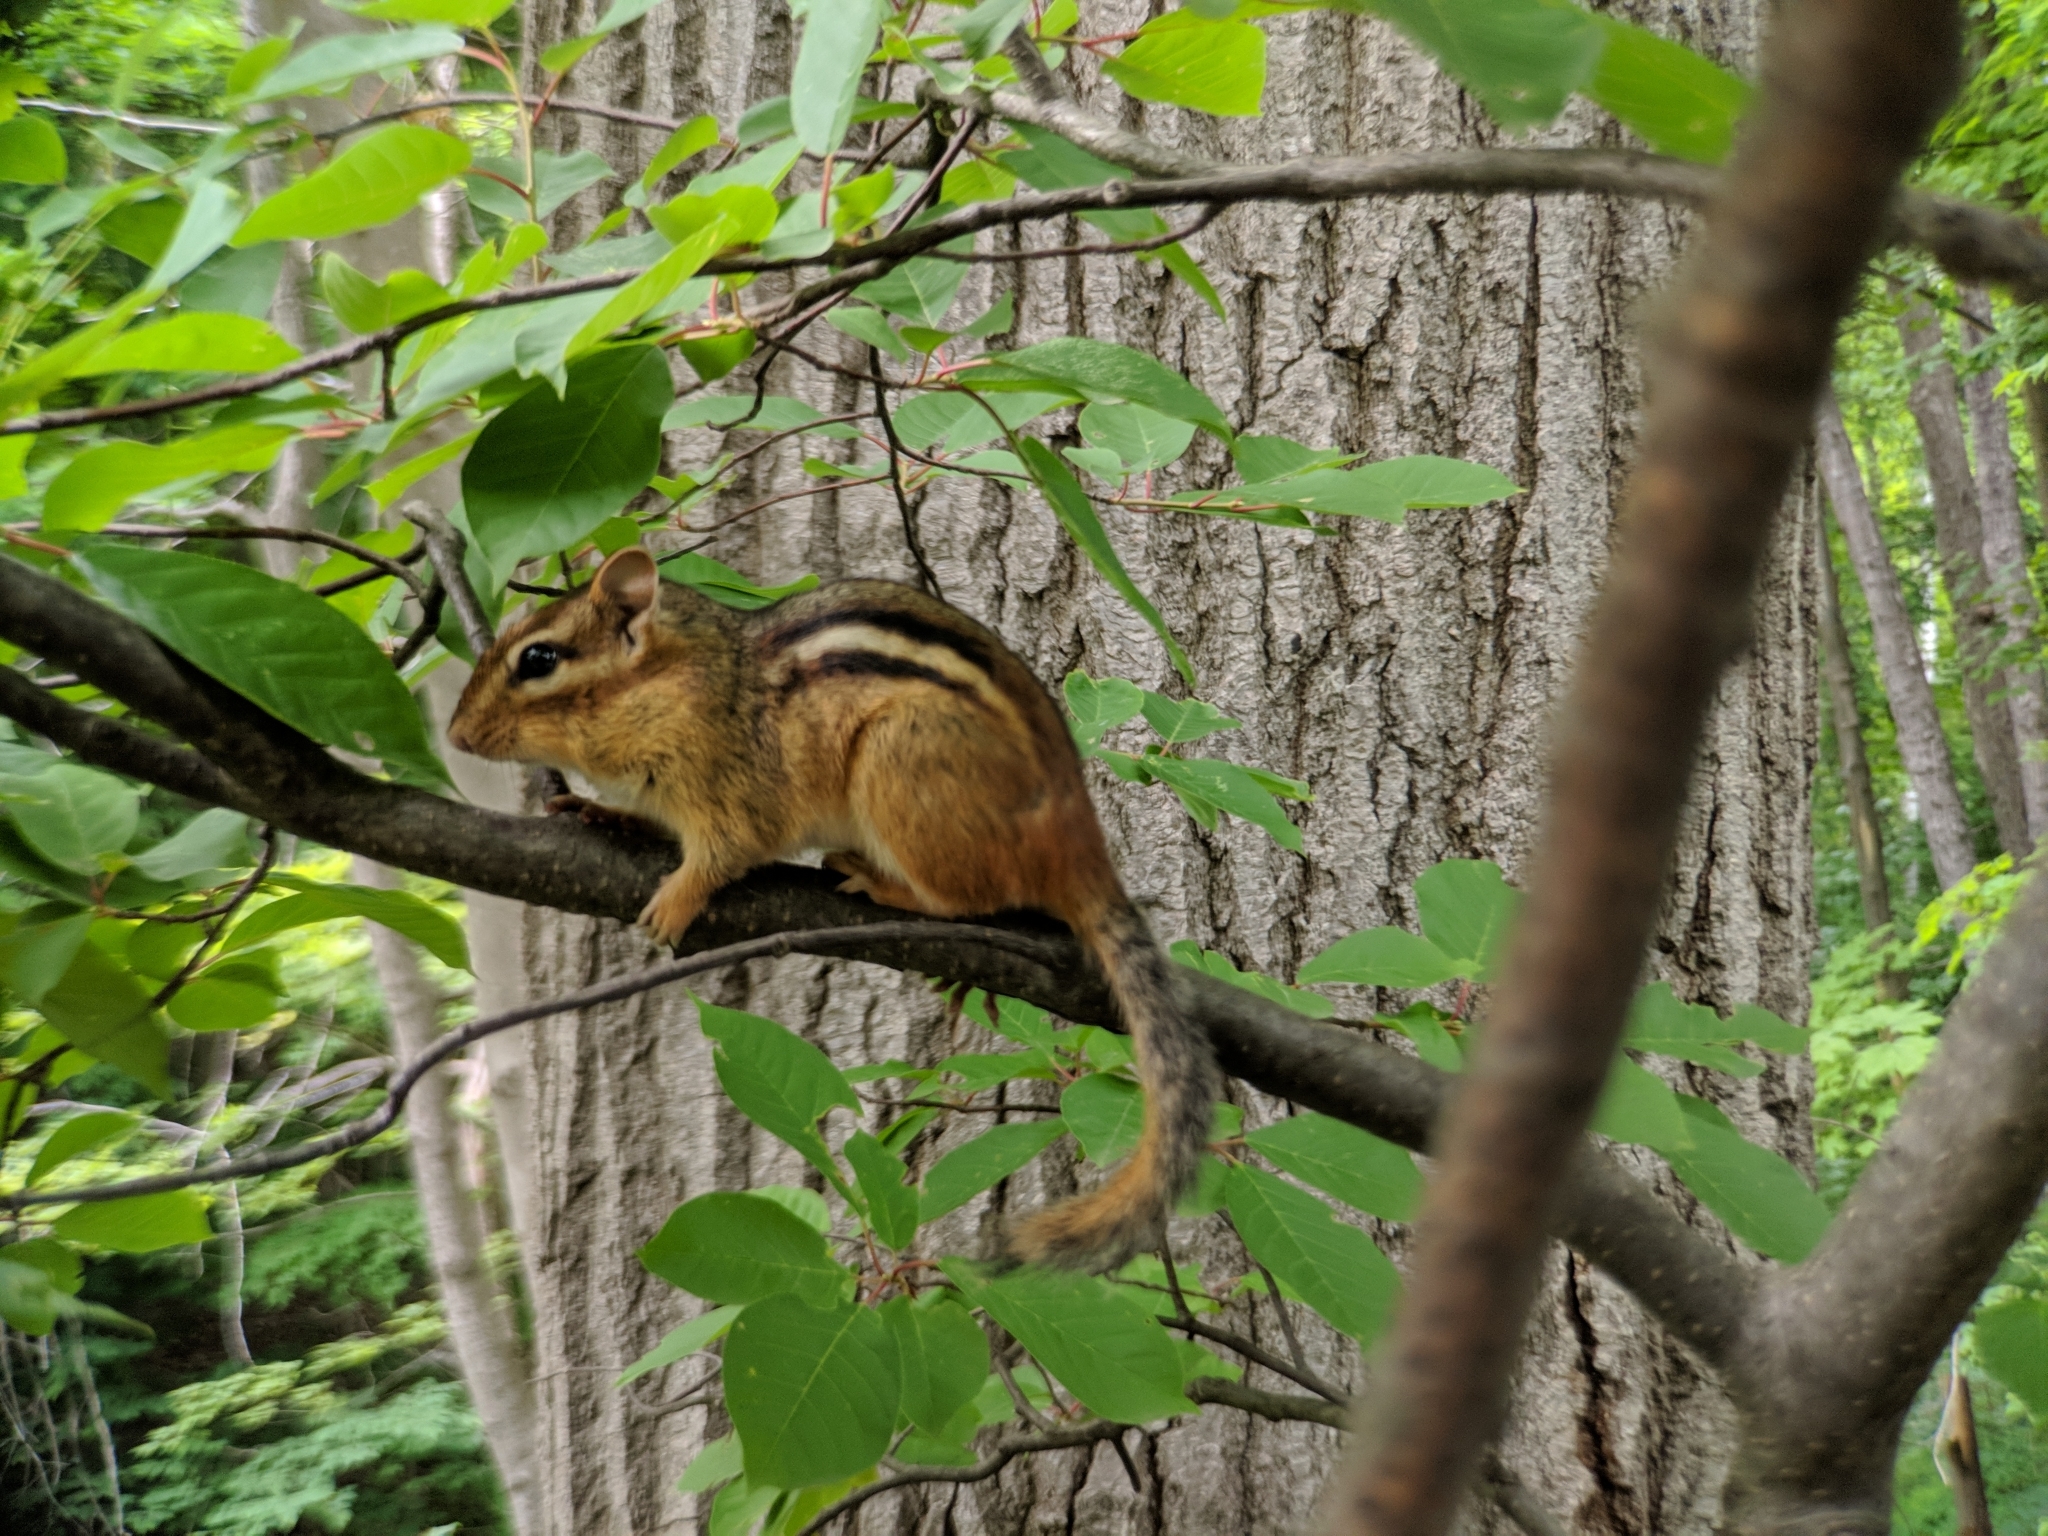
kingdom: Animalia
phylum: Chordata
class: Mammalia
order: Rodentia
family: Sciuridae
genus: Tamias
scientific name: Tamias striatus
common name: Eastern chipmunk
